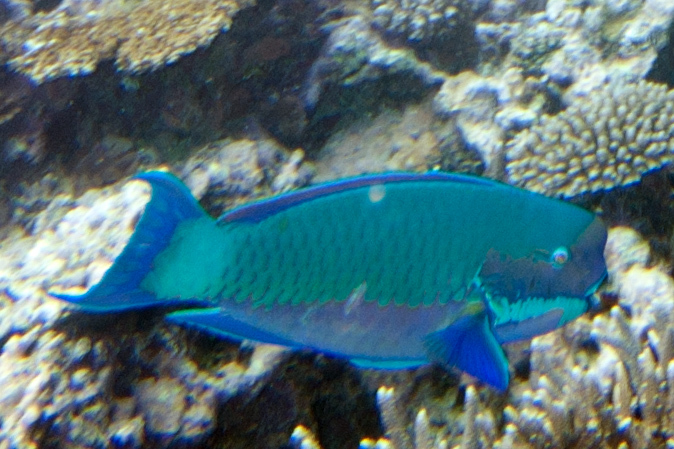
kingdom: Animalia
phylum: Chordata
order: Perciformes
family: Scaridae
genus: Chlorurus
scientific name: Chlorurus microrhinos
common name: Steephead parrotfish
